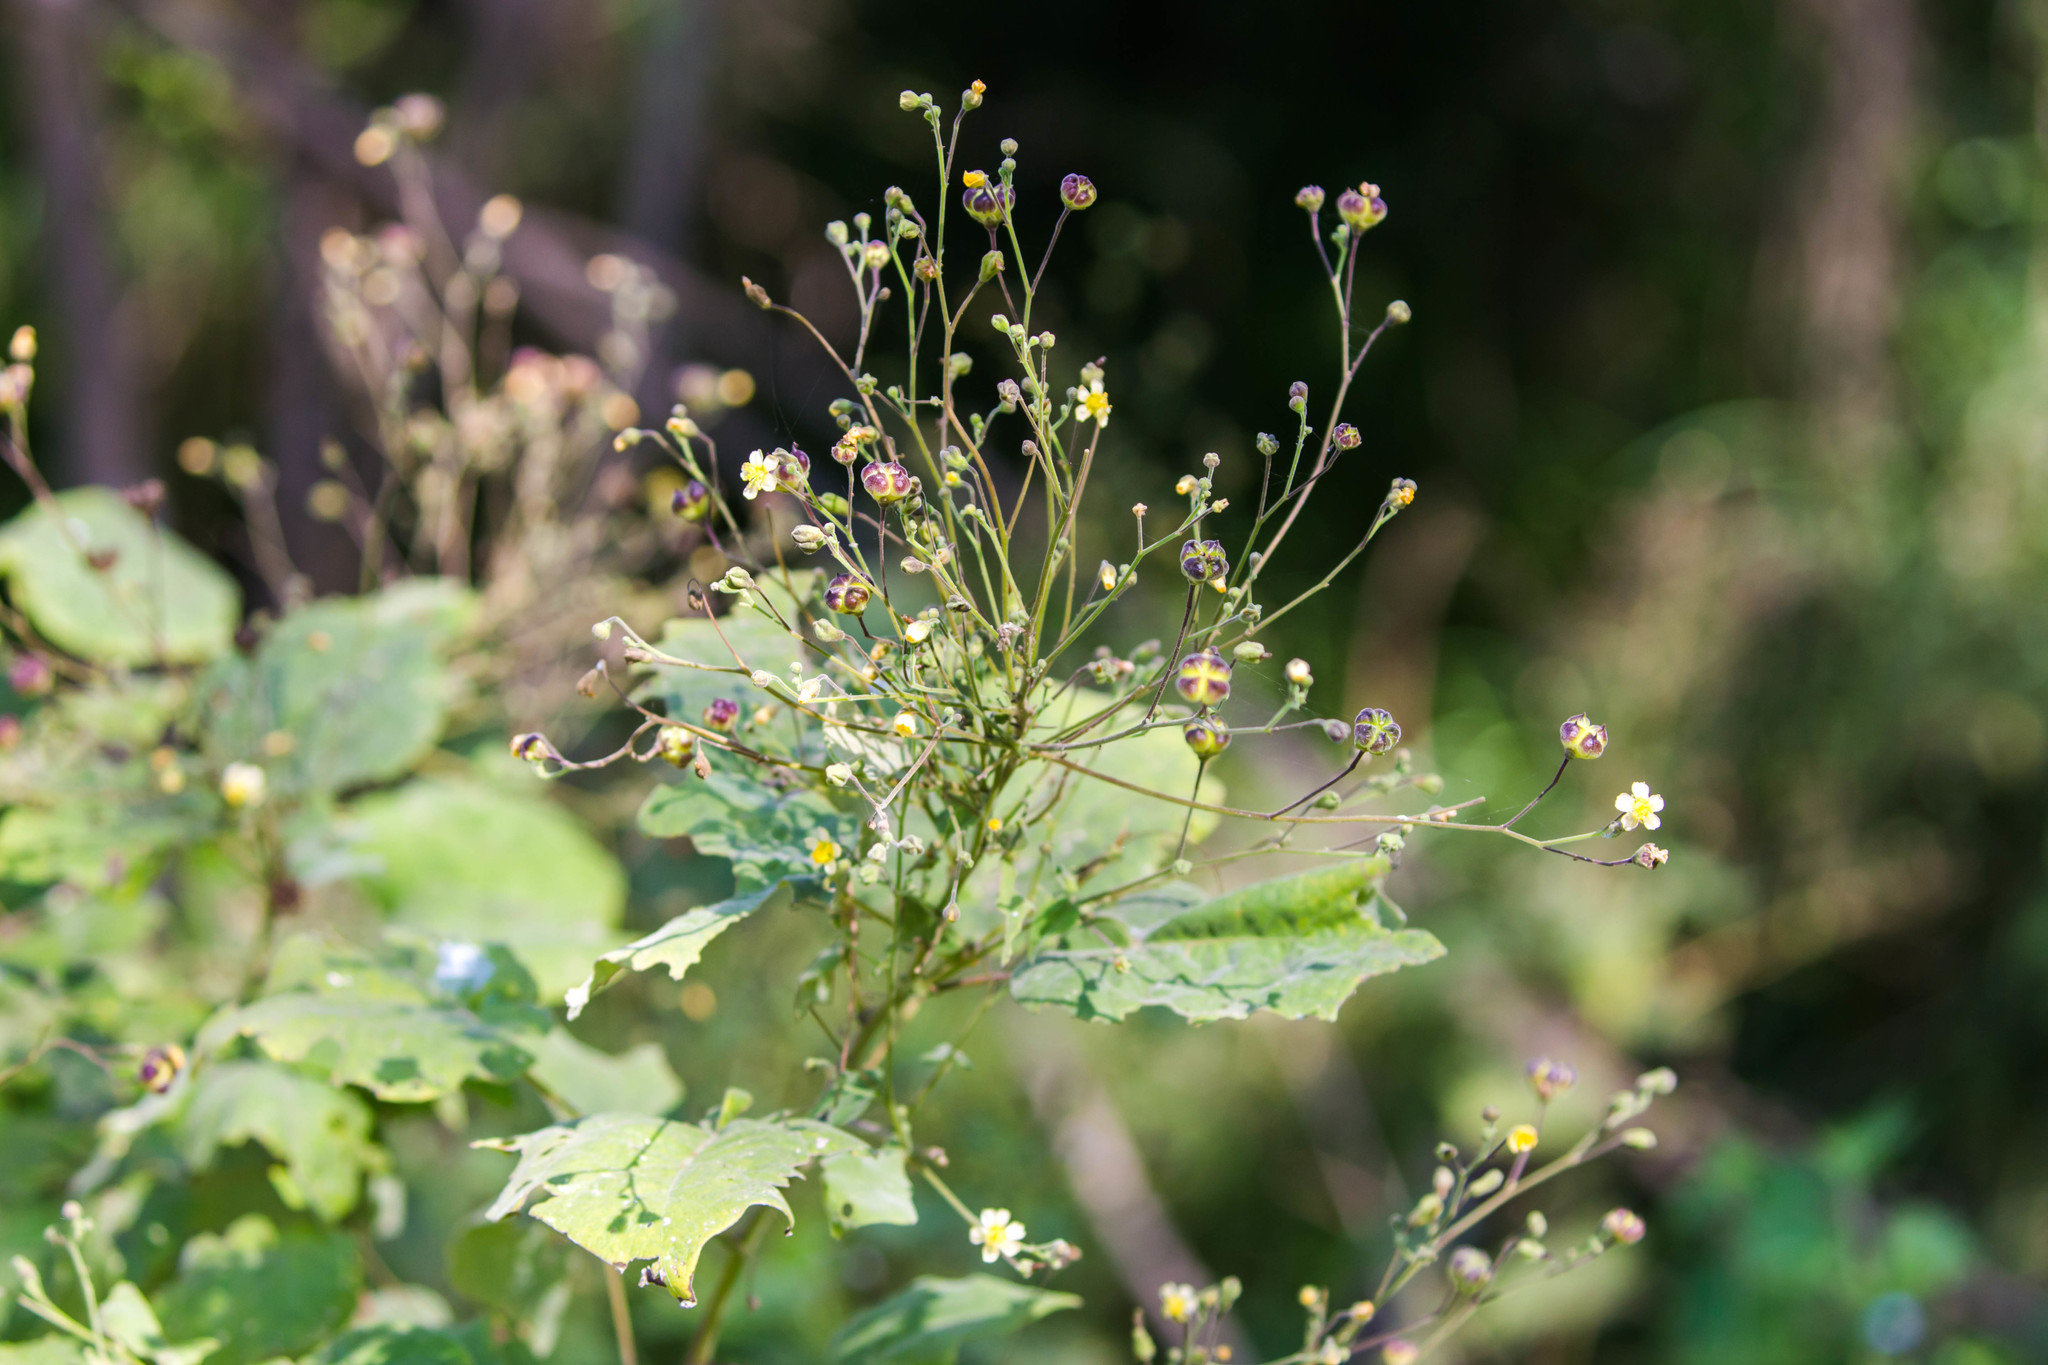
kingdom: Plantae
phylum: Tracheophyta
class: Magnoliopsida
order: Malvales
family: Malvaceae
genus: Wissadula
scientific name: Wissadula amplissima
